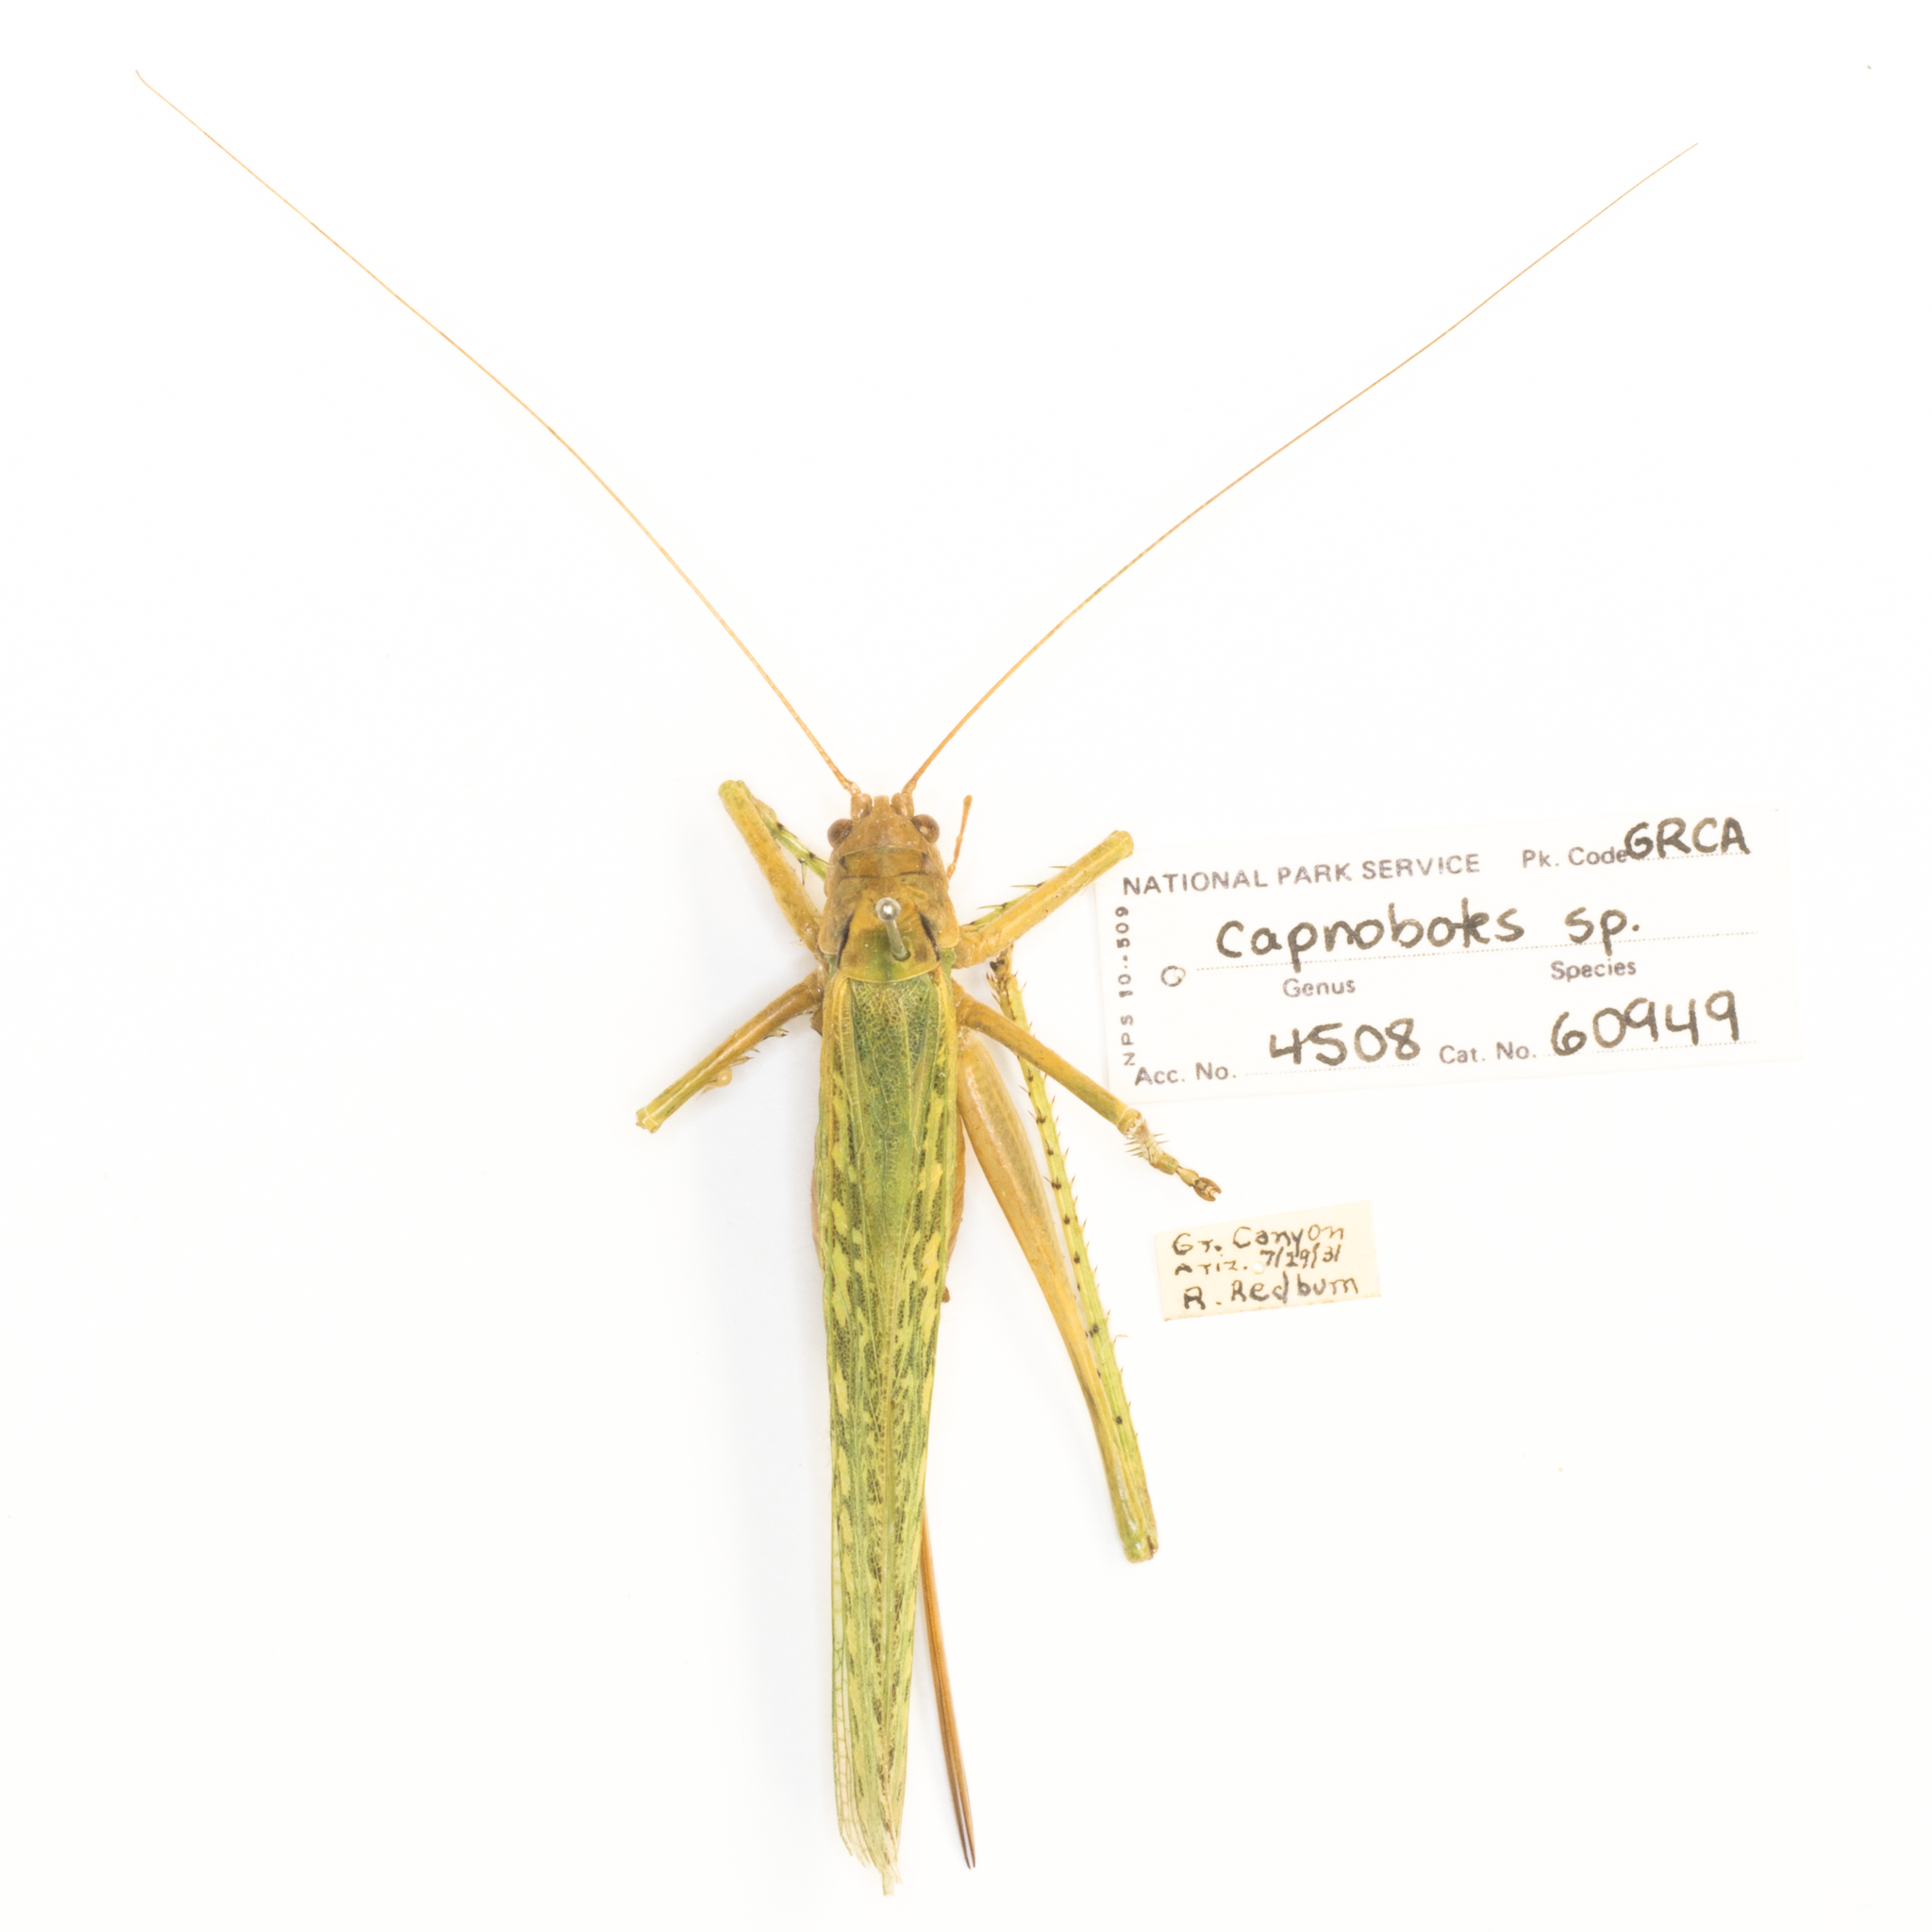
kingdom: Animalia
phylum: Arthropoda
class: Insecta
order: Orthoptera
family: Tettigoniidae
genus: Capnobotes
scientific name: Capnobotes occidentalis
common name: Western longwing
